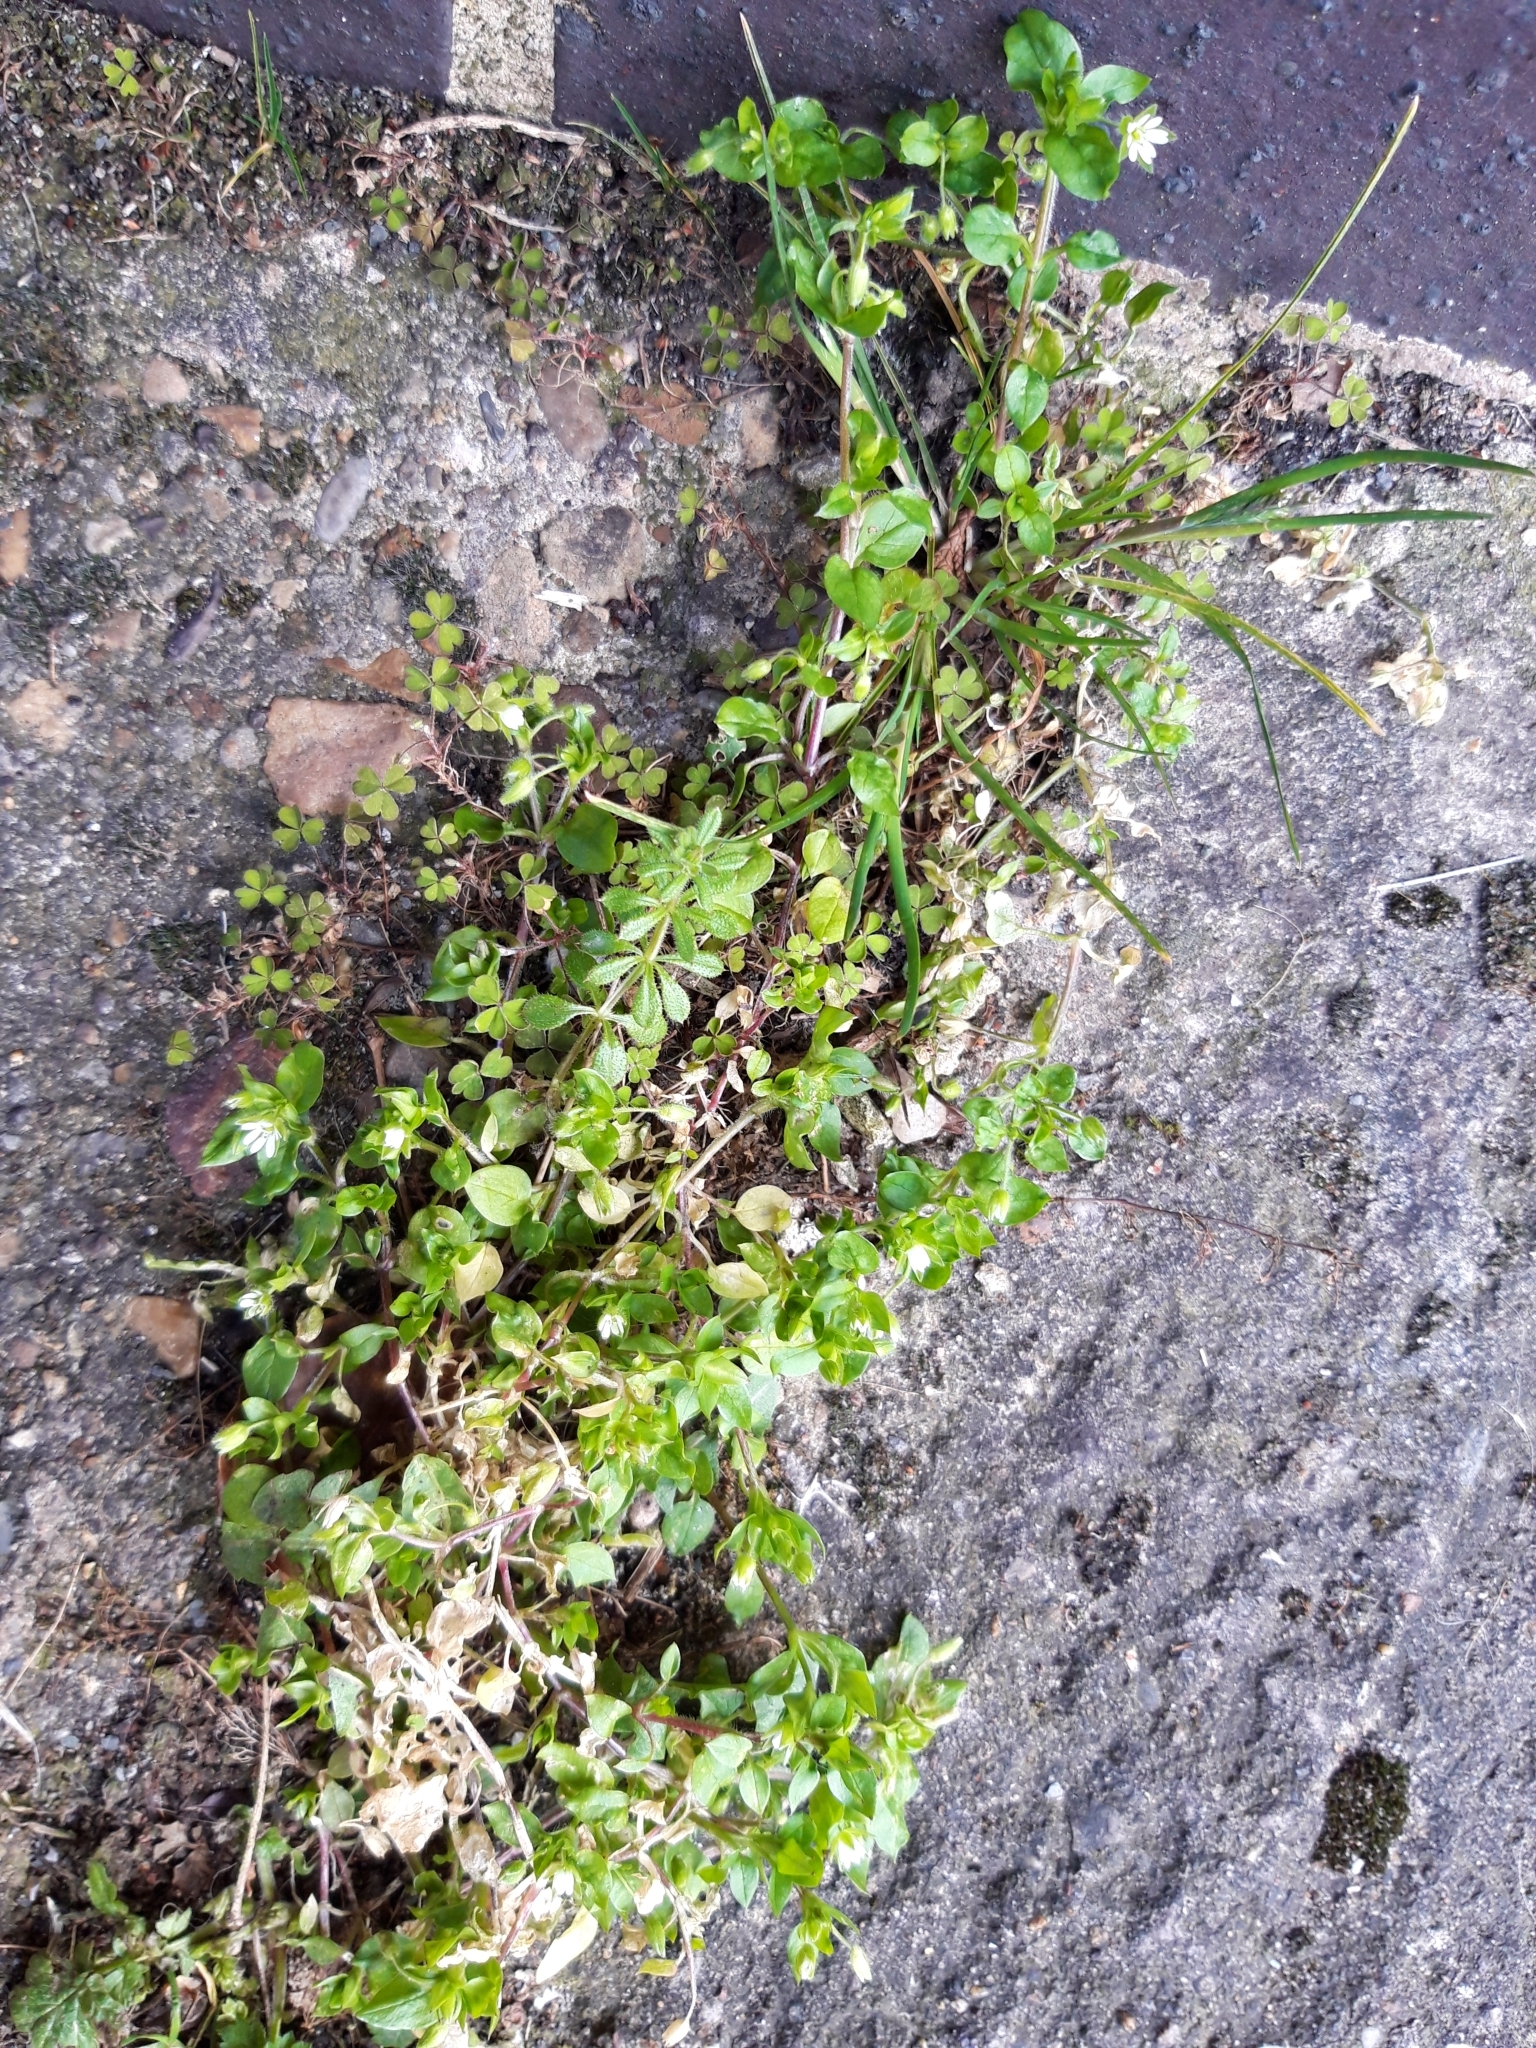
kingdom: Plantae
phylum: Tracheophyta
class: Magnoliopsida
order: Caryophyllales
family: Caryophyllaceae
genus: Stellaria
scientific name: Stellaria media
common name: Common chickweed
